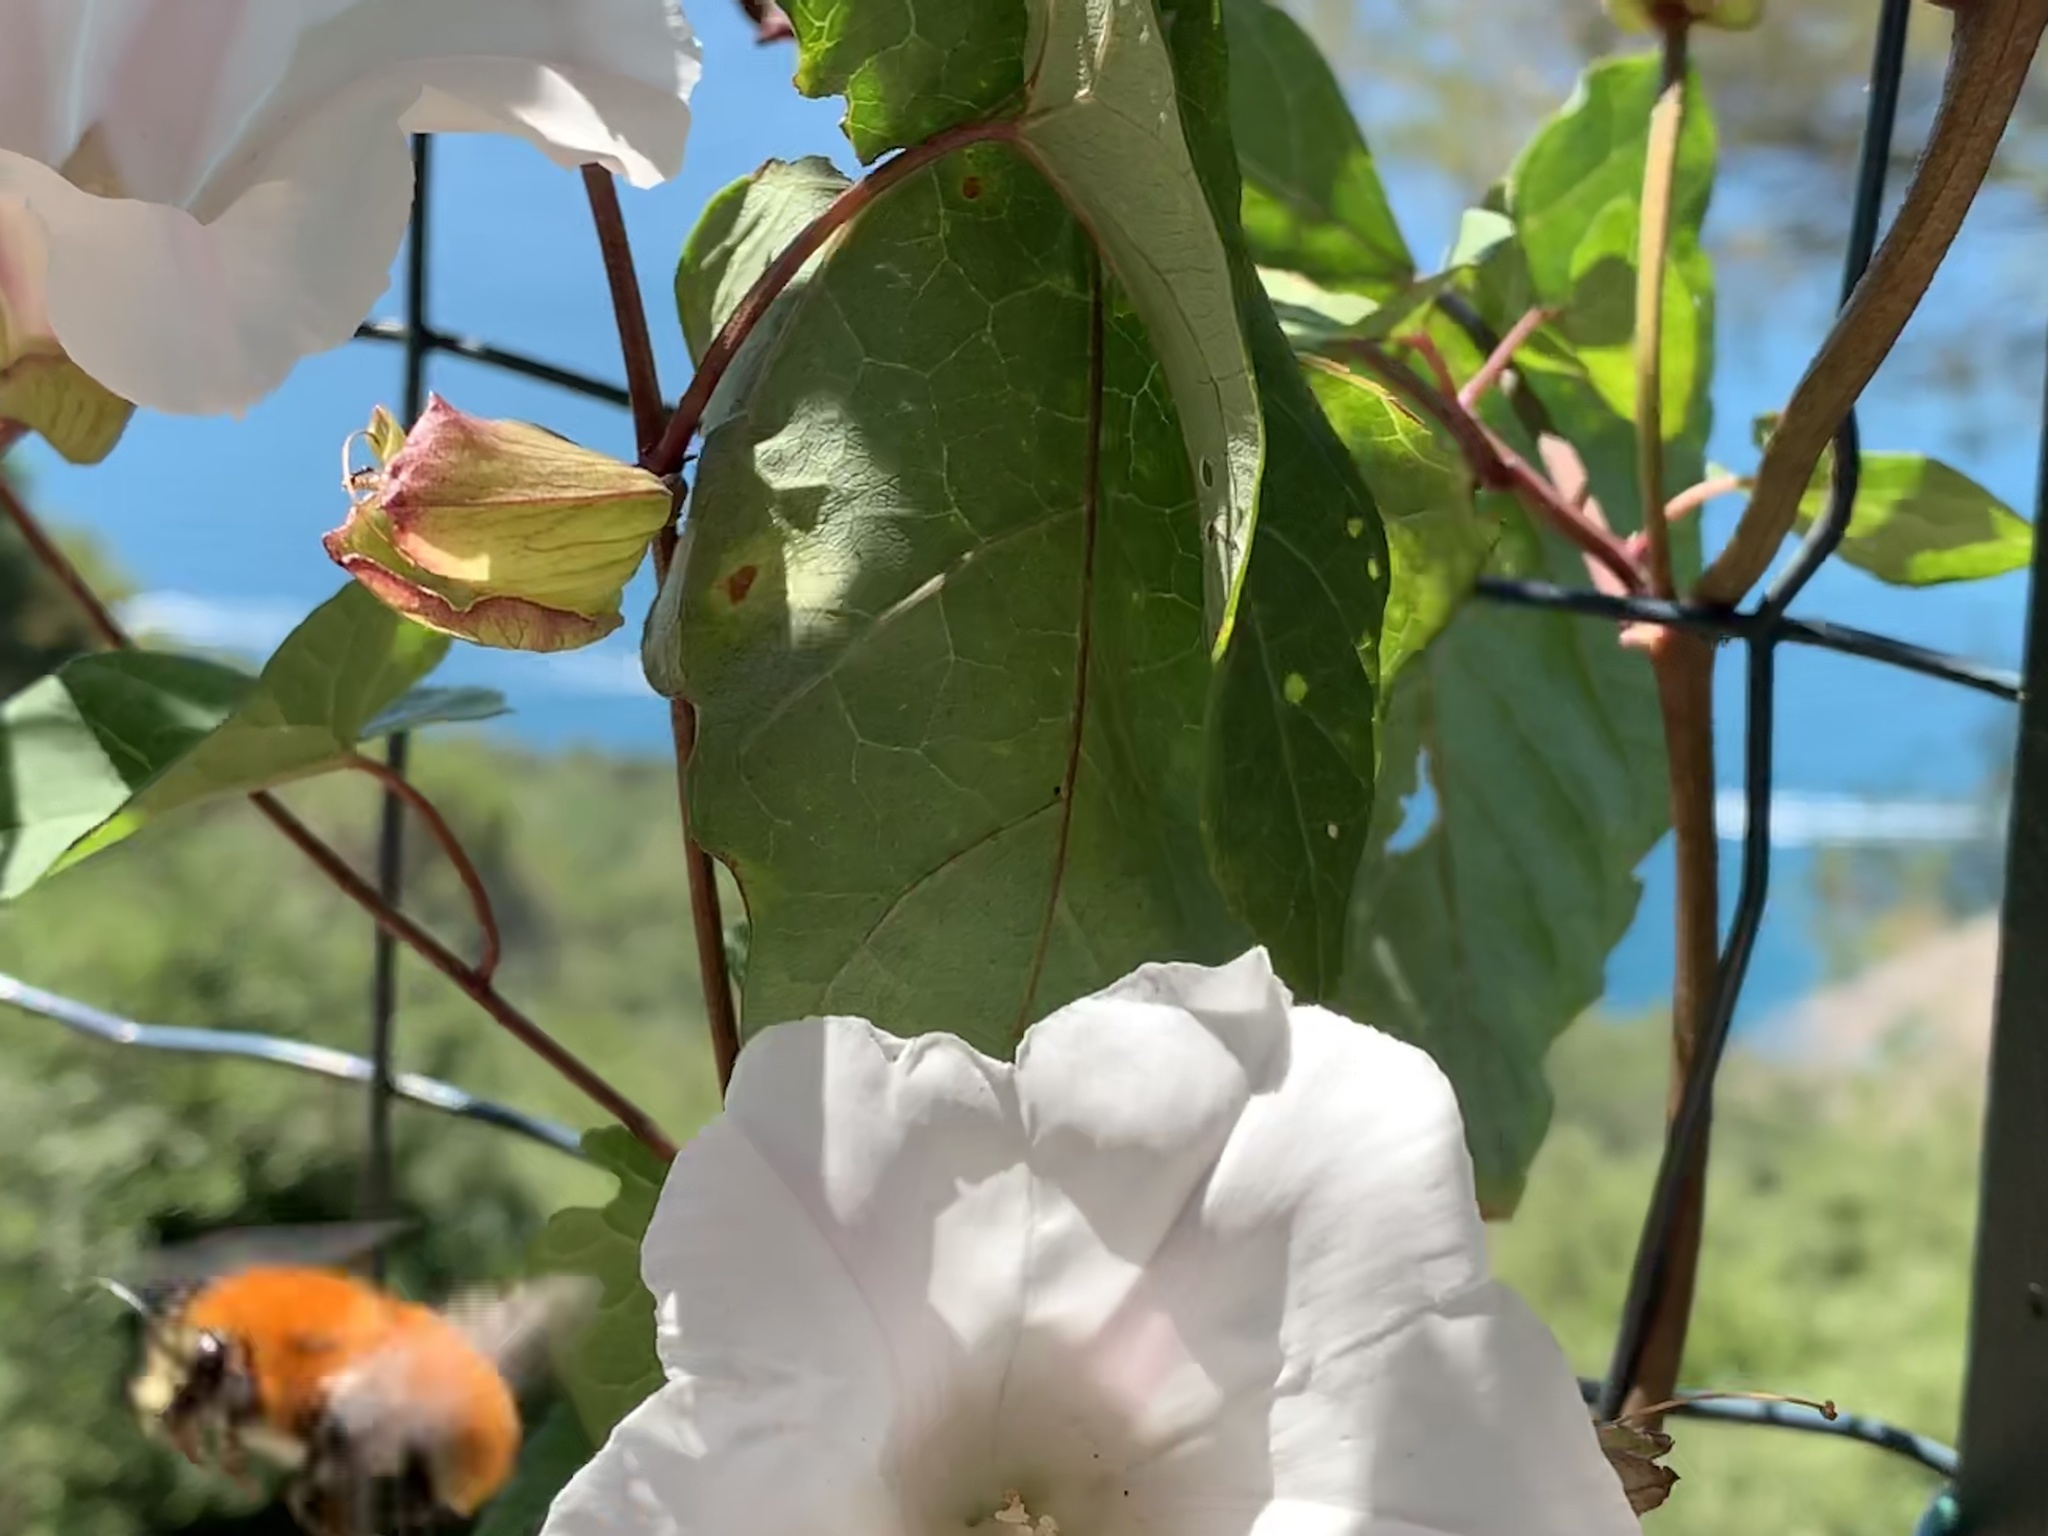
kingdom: Animalia
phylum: Arthropoda
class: Insecta
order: Hymenoptera
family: Apidae
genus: Bombus
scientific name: Bombus pascuorum
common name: Common carder bee
